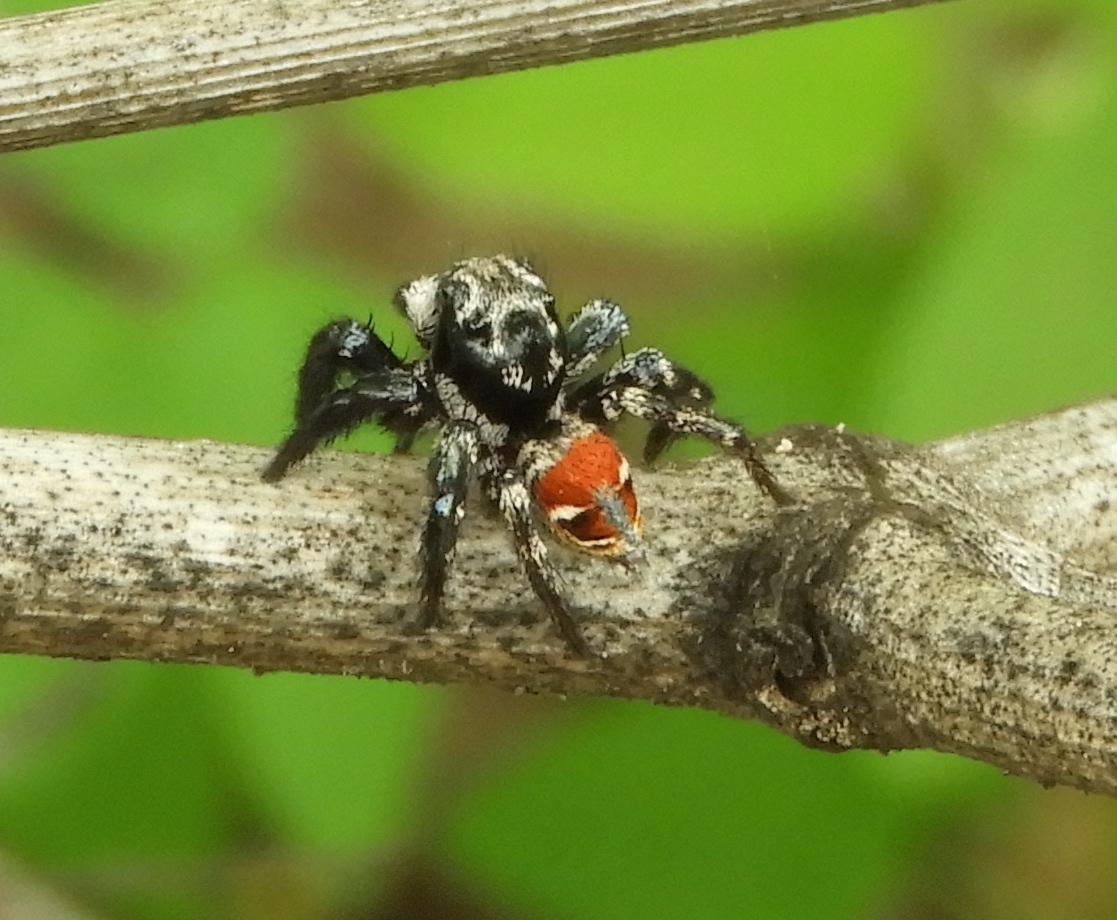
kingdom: Animalia
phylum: Arthropoda
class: Arachnida
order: Araneae
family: Salticidae
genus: Corythalia
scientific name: Corythalia
